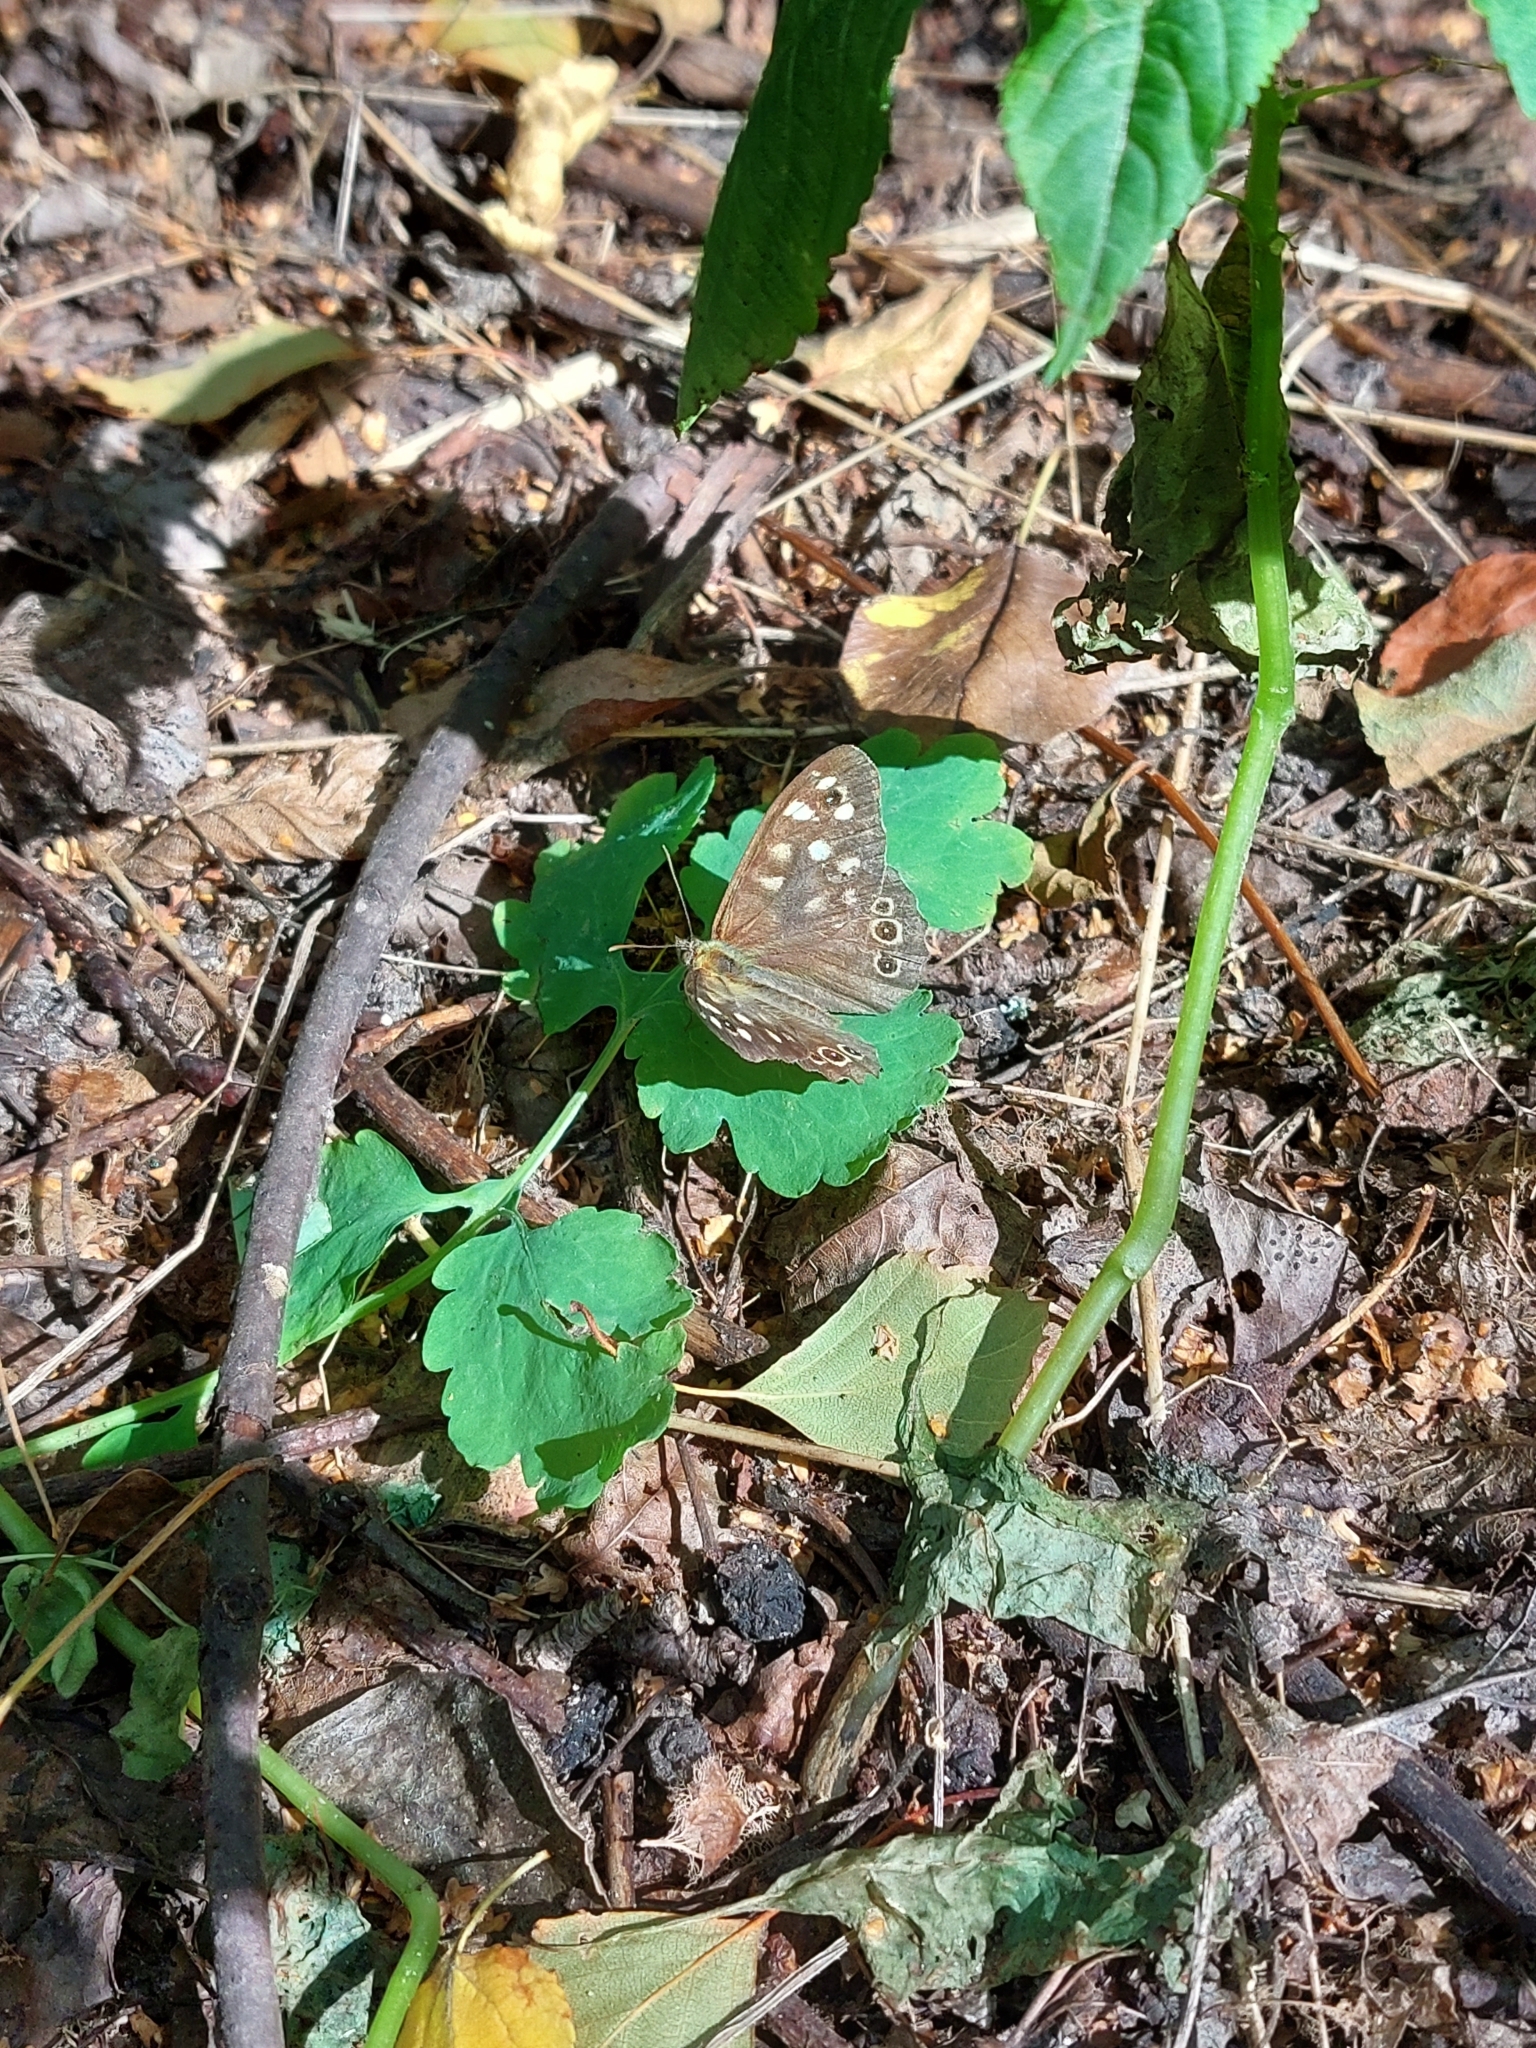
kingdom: Animalia
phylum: Arthropoda
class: Insecta
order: Lepidoptera
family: Nymphalidae
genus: Pararge
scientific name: Pararge aegeria
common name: Speckled wood
